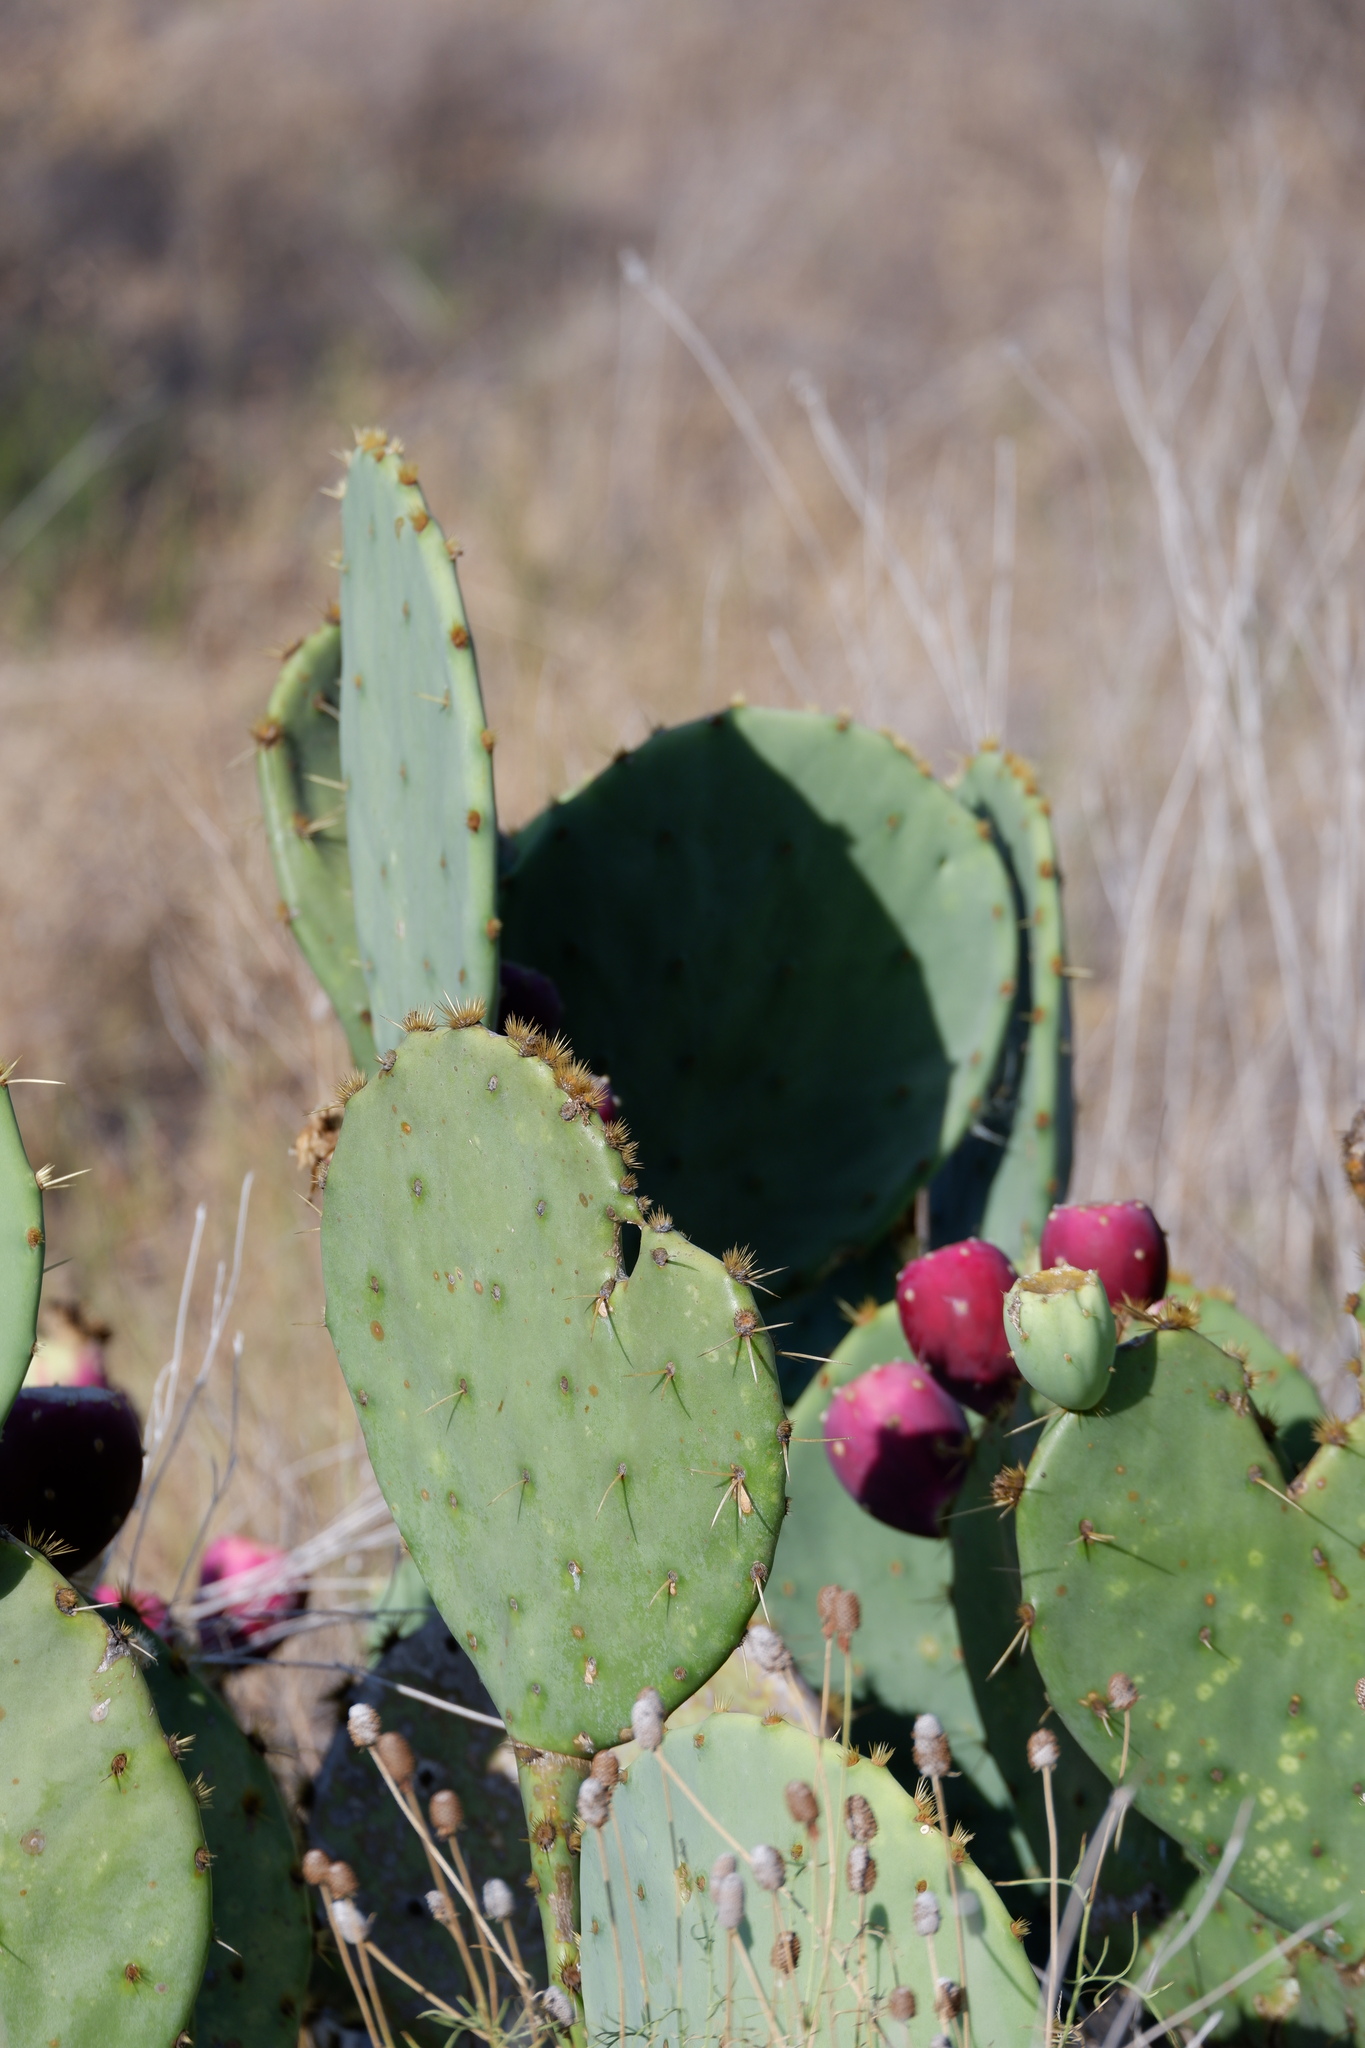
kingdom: Plantae
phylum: Tracheophyta
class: Magnoliopsida
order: Caryophyllales
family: Cactaceae
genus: Opuntia
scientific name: Opuntia orbiculata
